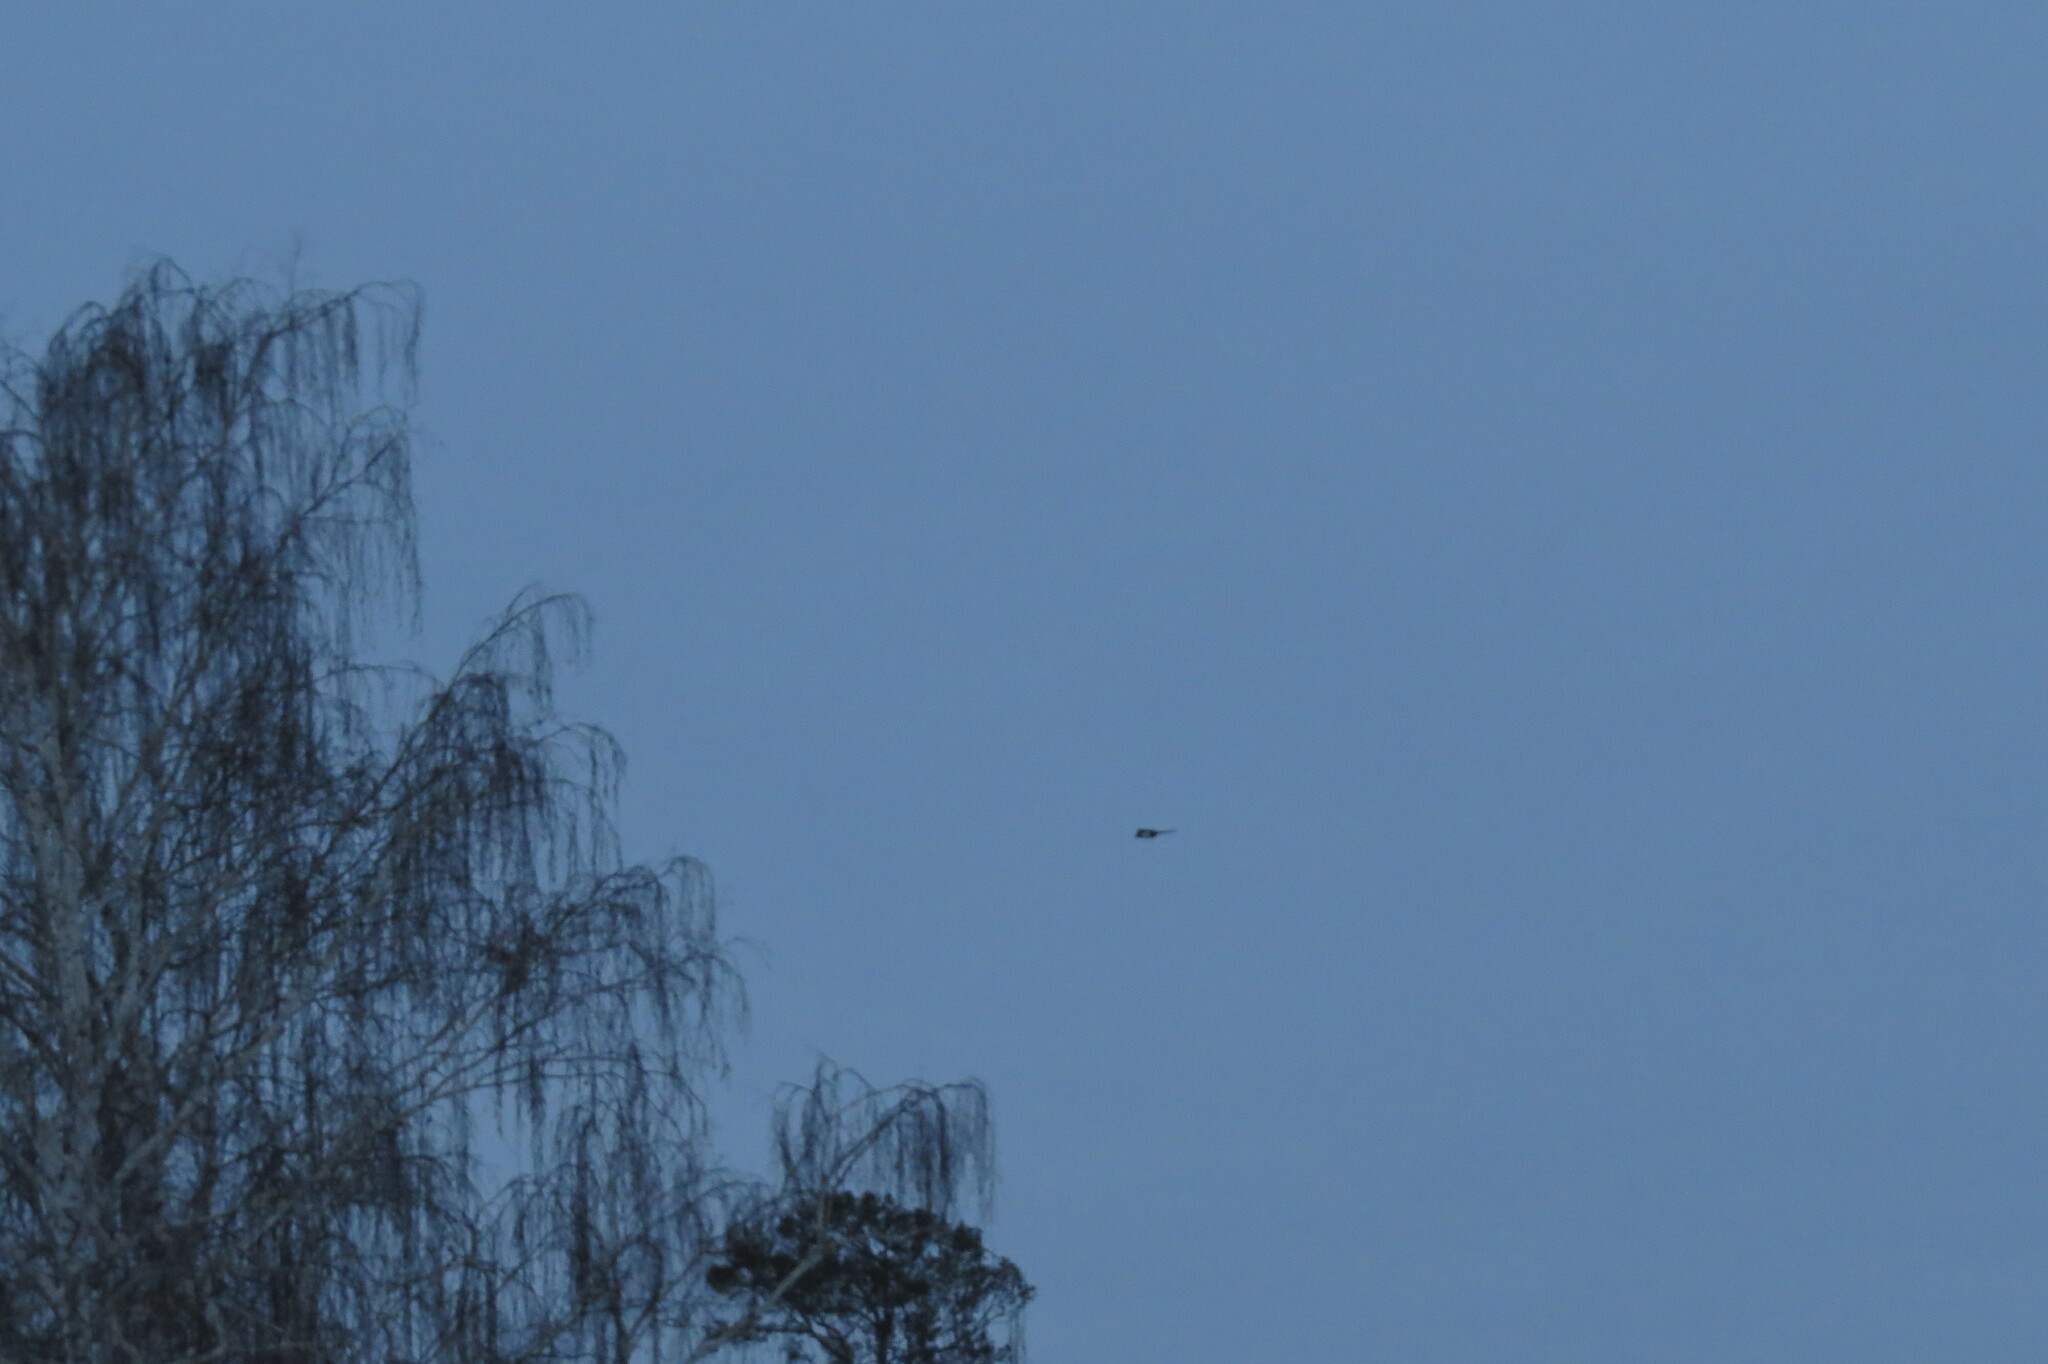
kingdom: Animalia
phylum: Chordata
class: Aves
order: Passeriformes
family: Corvidae
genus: Pica
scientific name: Pica pica
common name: Eurasian magpie
